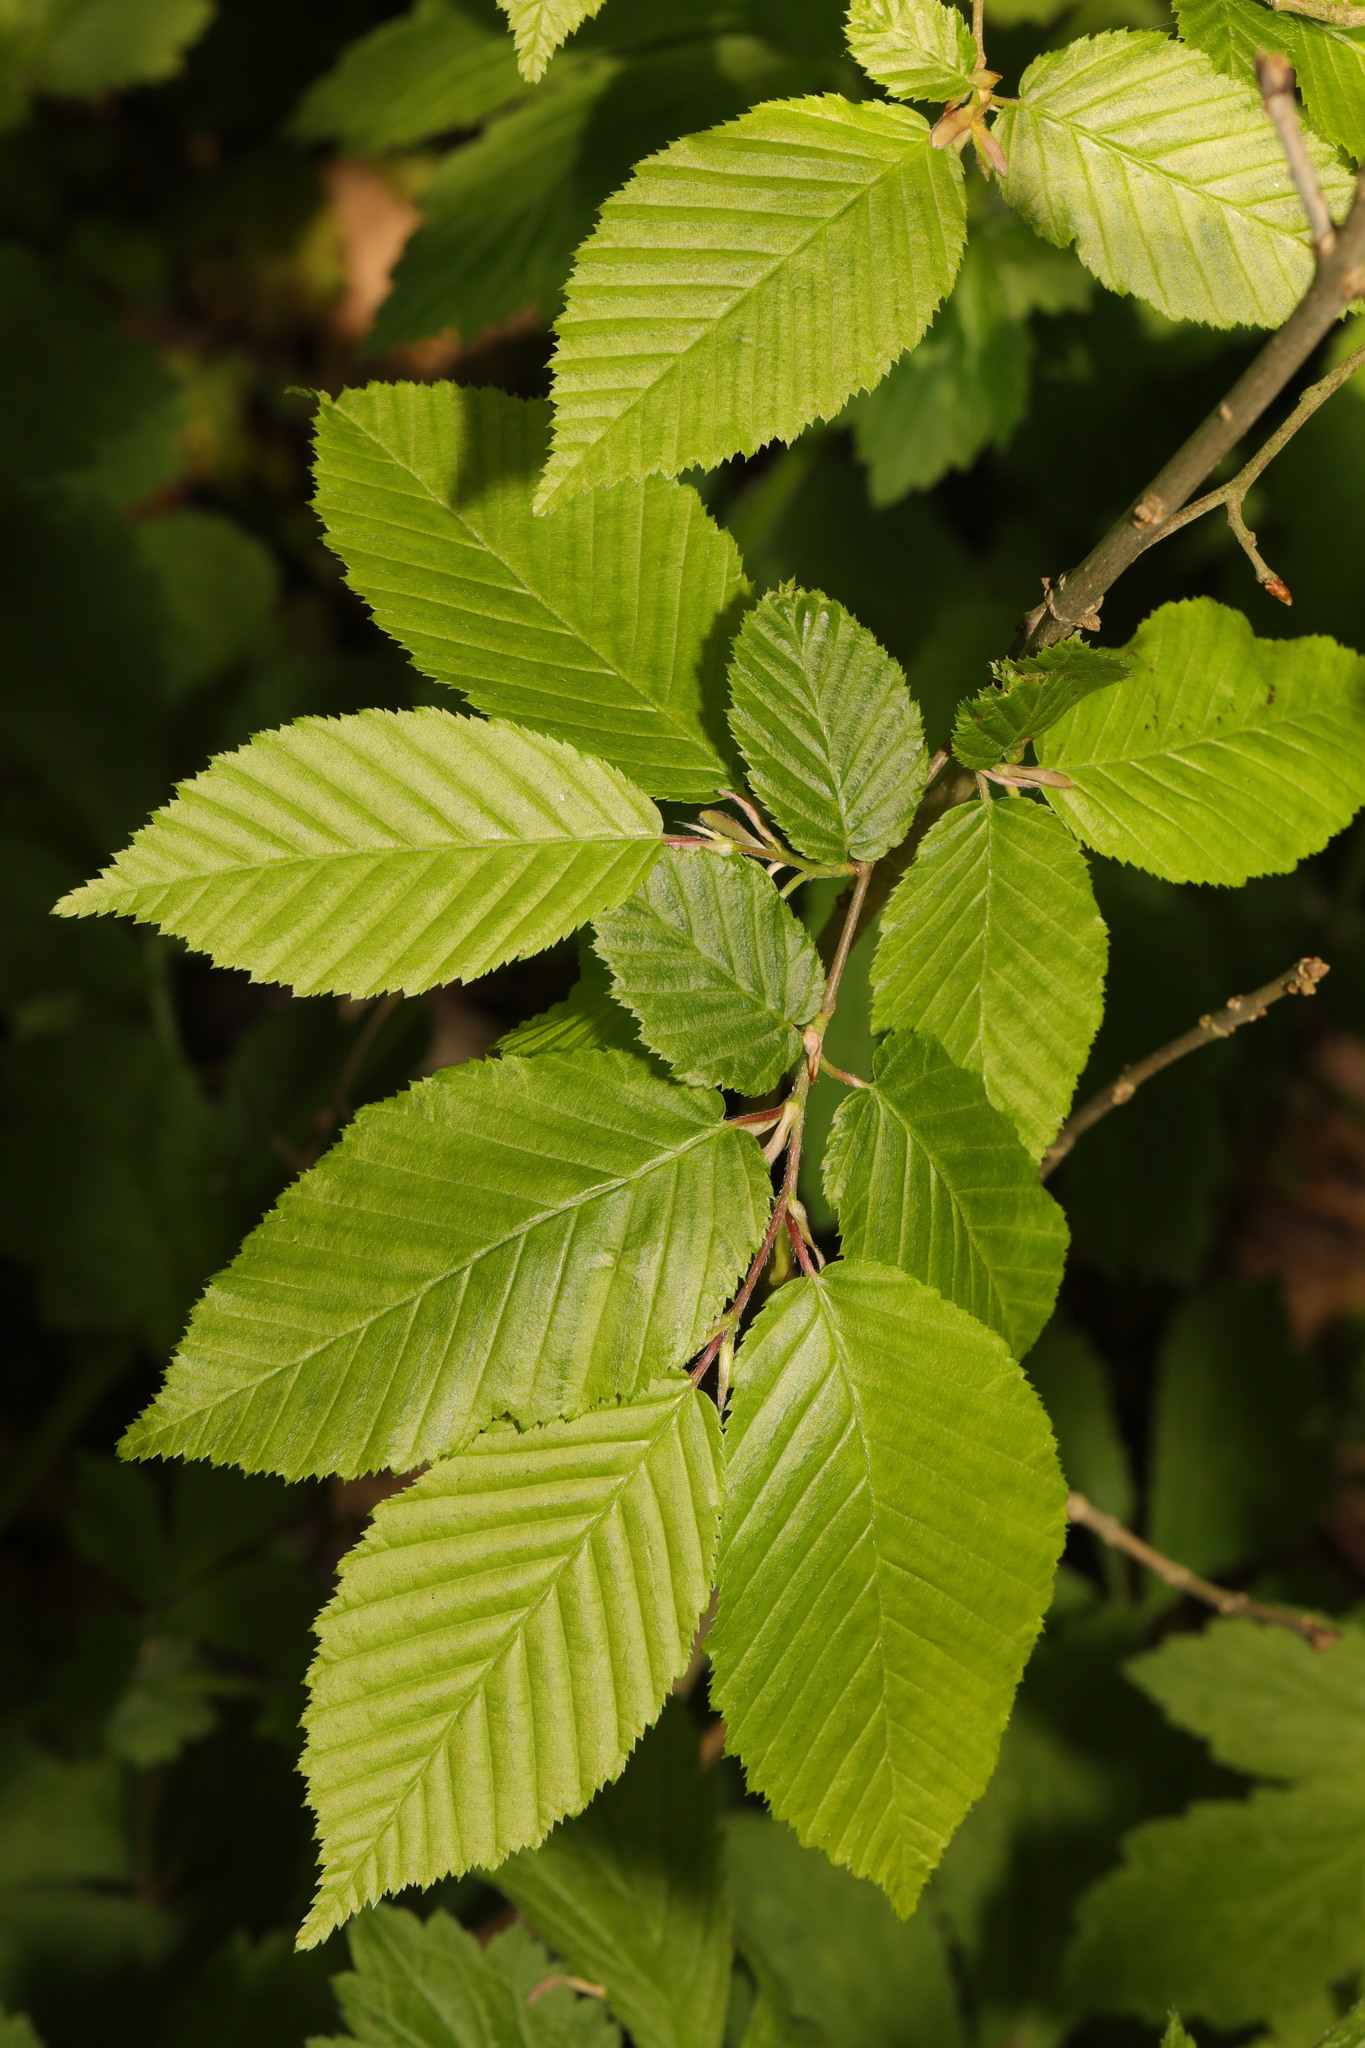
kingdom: Plantae
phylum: Tracheophyta
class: Magnoliopsida
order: Fagales
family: Betulaceae
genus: Carpinus
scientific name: Carpinus betulus
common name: Hornbeam
